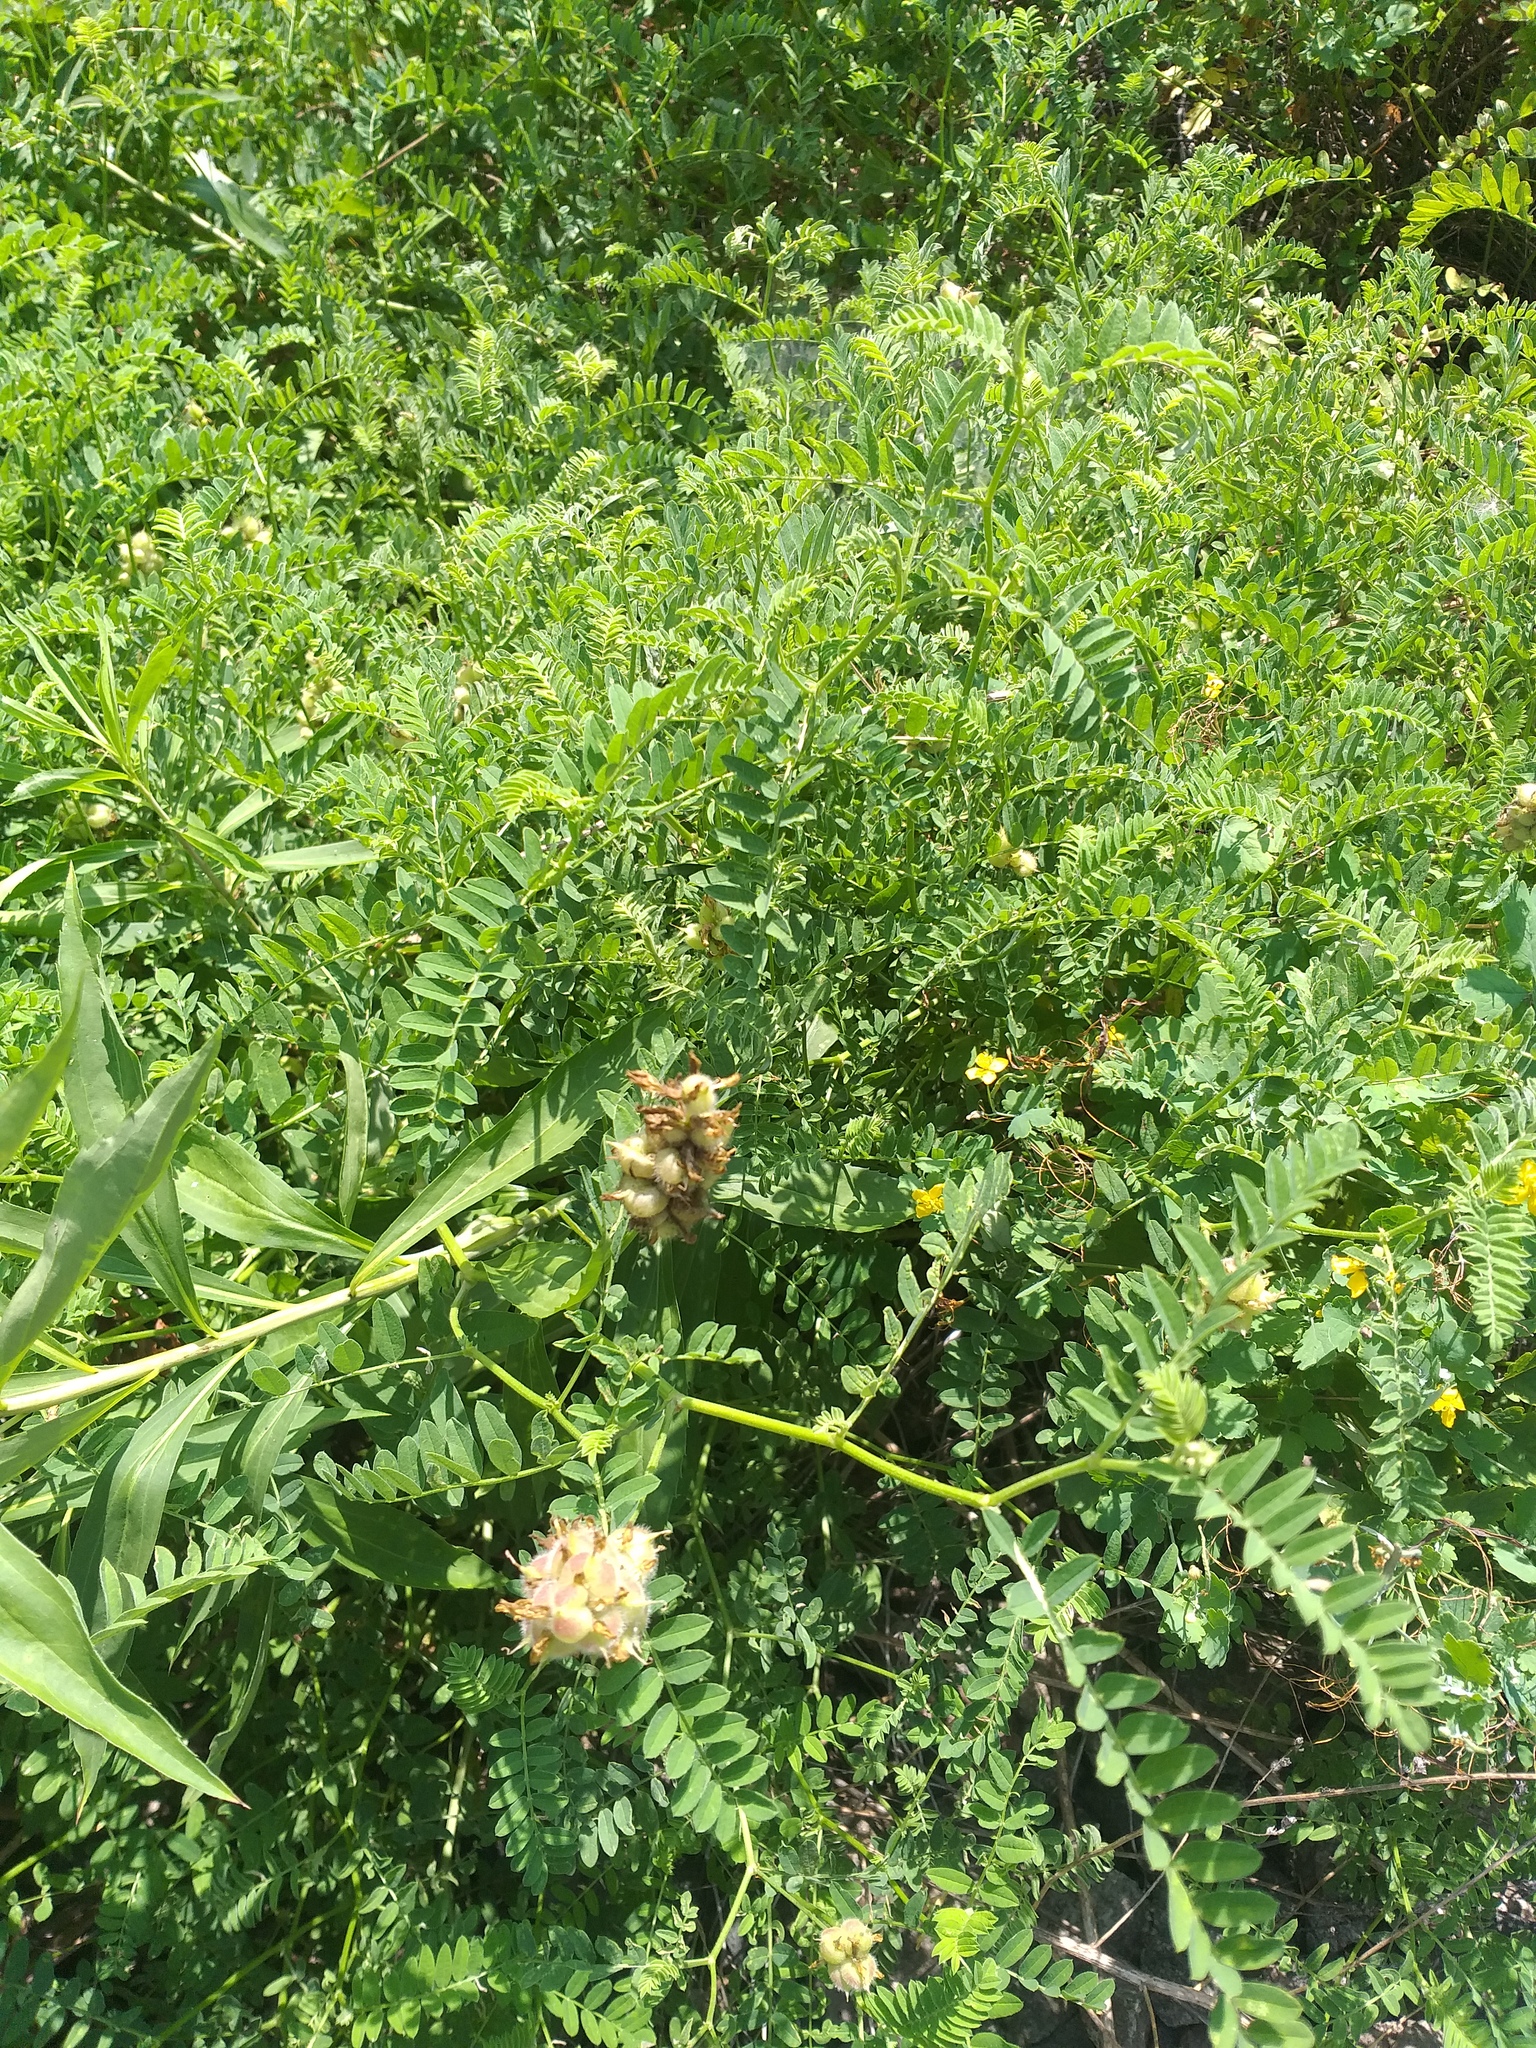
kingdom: Plantae
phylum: Tracheophyta
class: Magnoliopsida
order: Fabales
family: Fabaceae
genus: Astragalus
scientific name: Astragalus cicer
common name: Chick-pea milk-vetch
